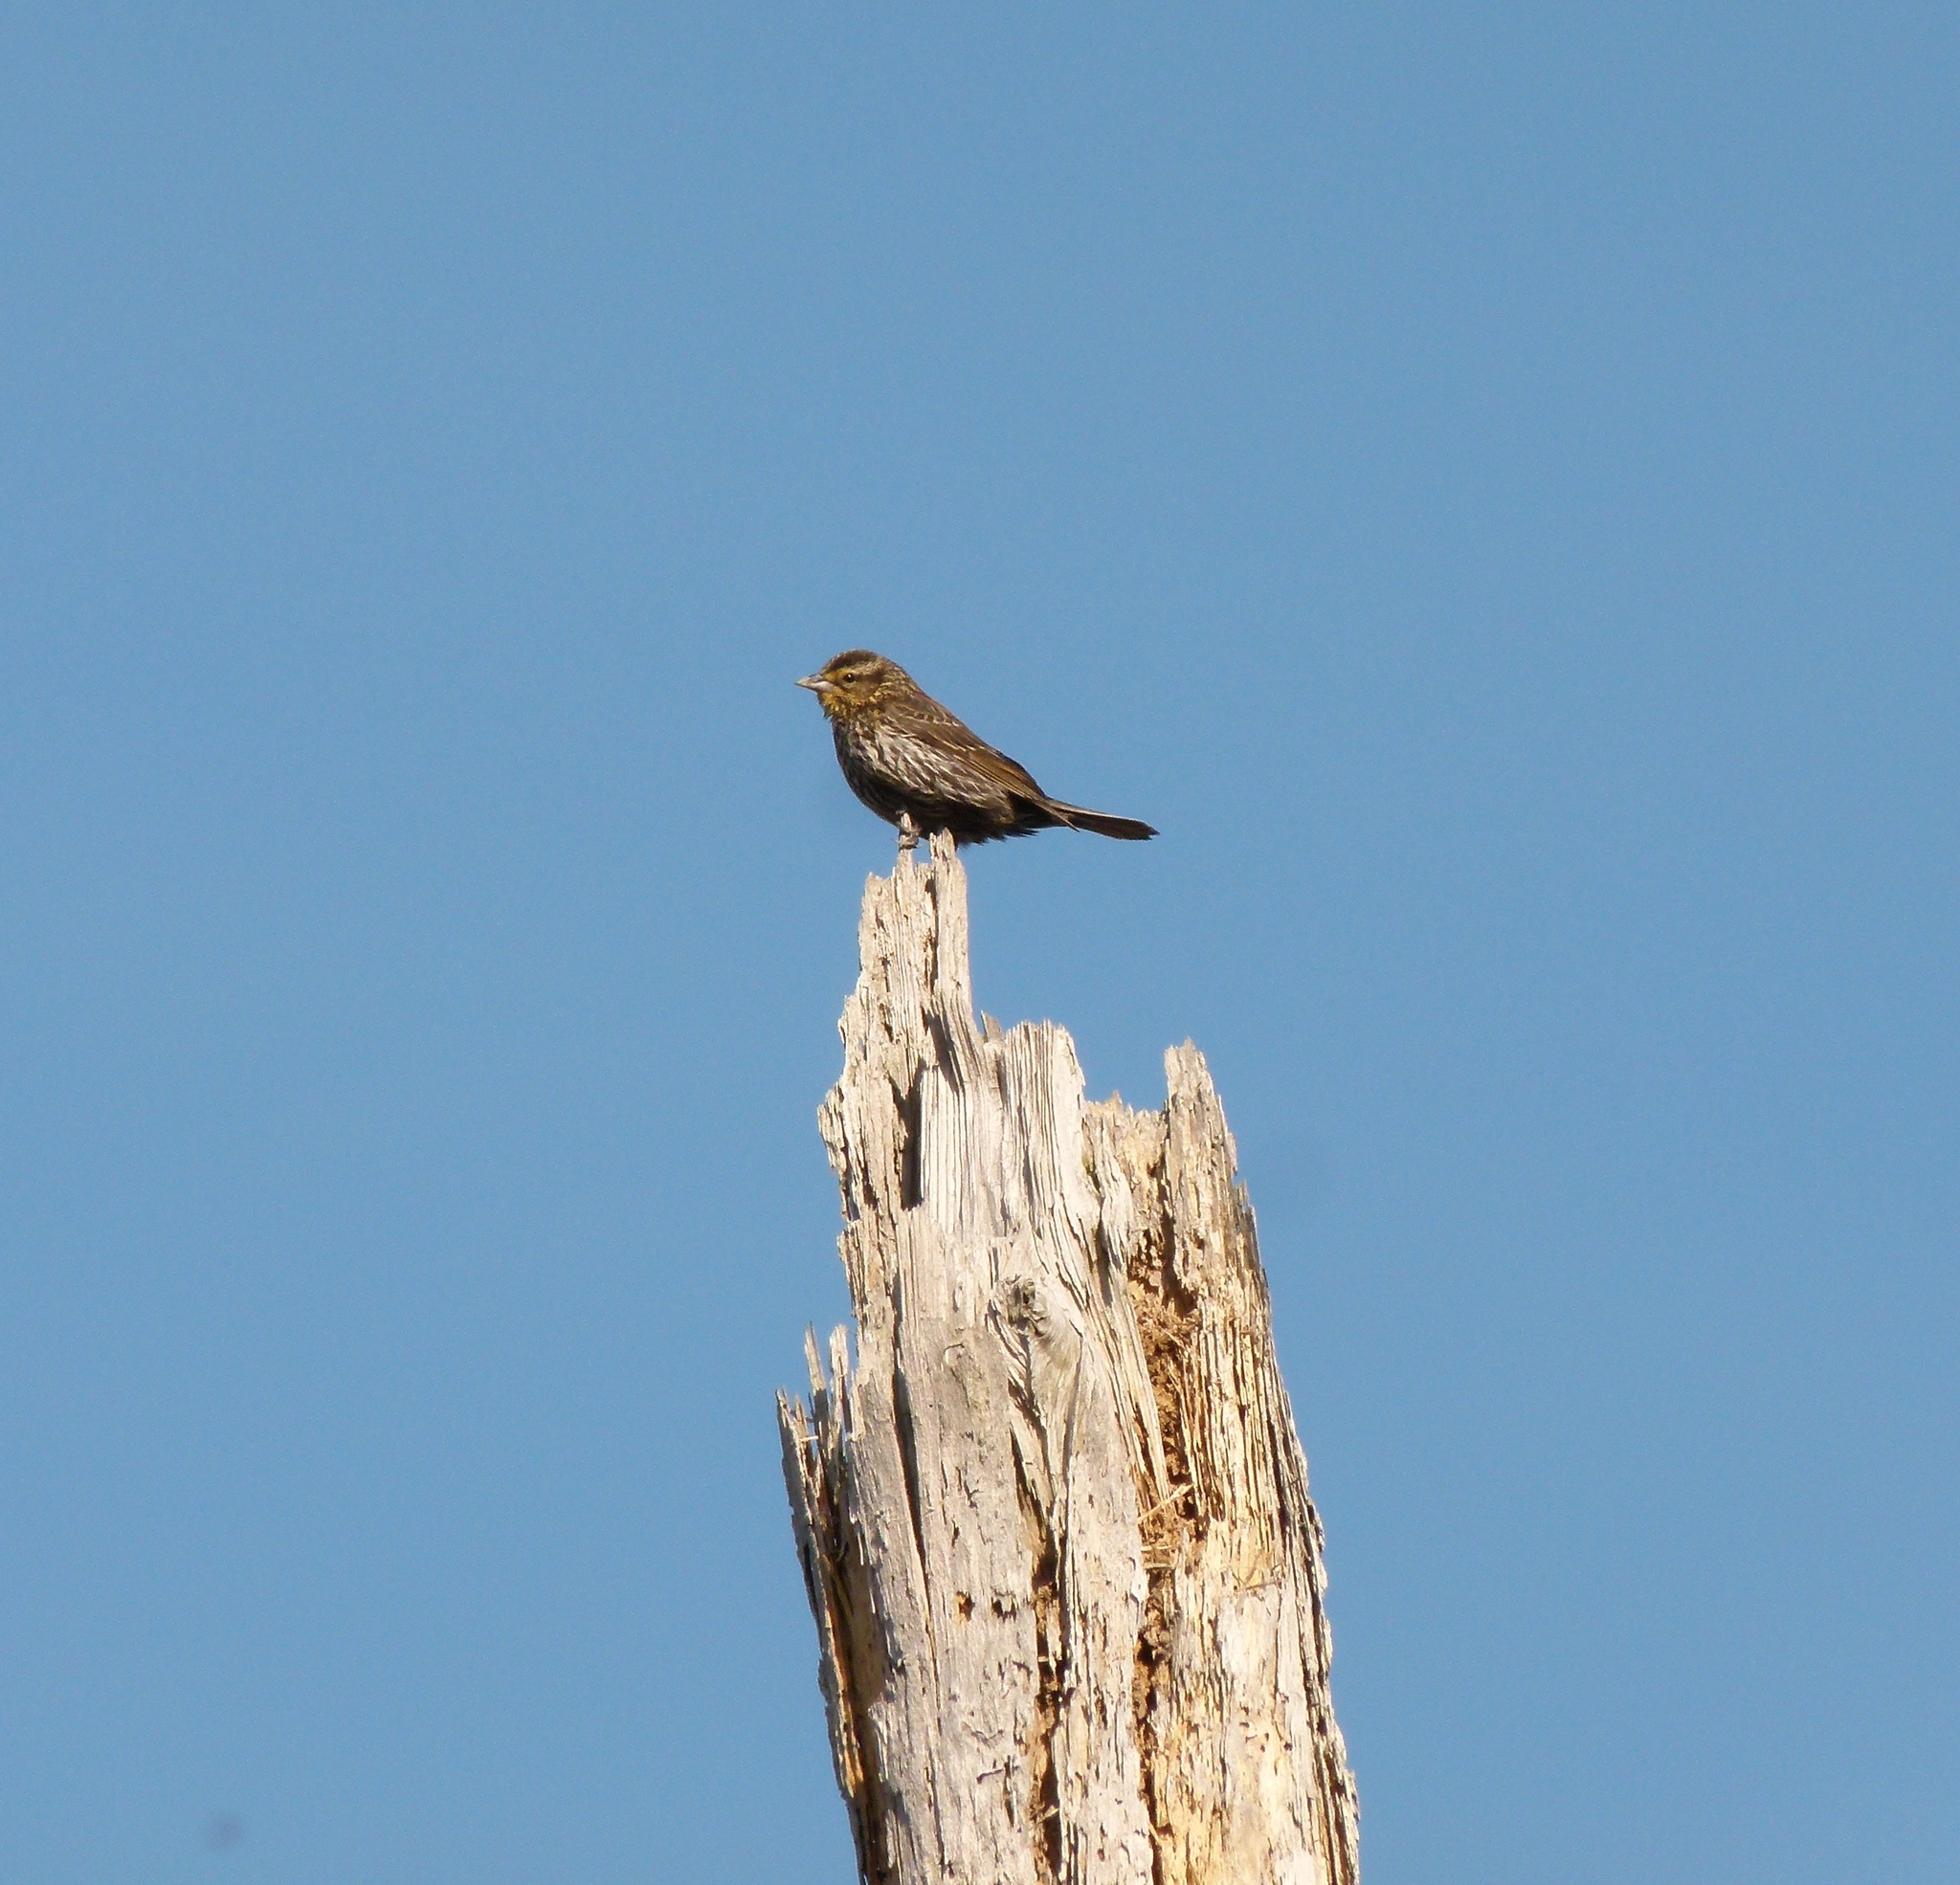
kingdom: Animalia
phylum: Chordata
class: Aves
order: Passeriformes
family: Icteridae
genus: Agelaius
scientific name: Agelaius phoeniceus
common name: Red-winged blackbird
